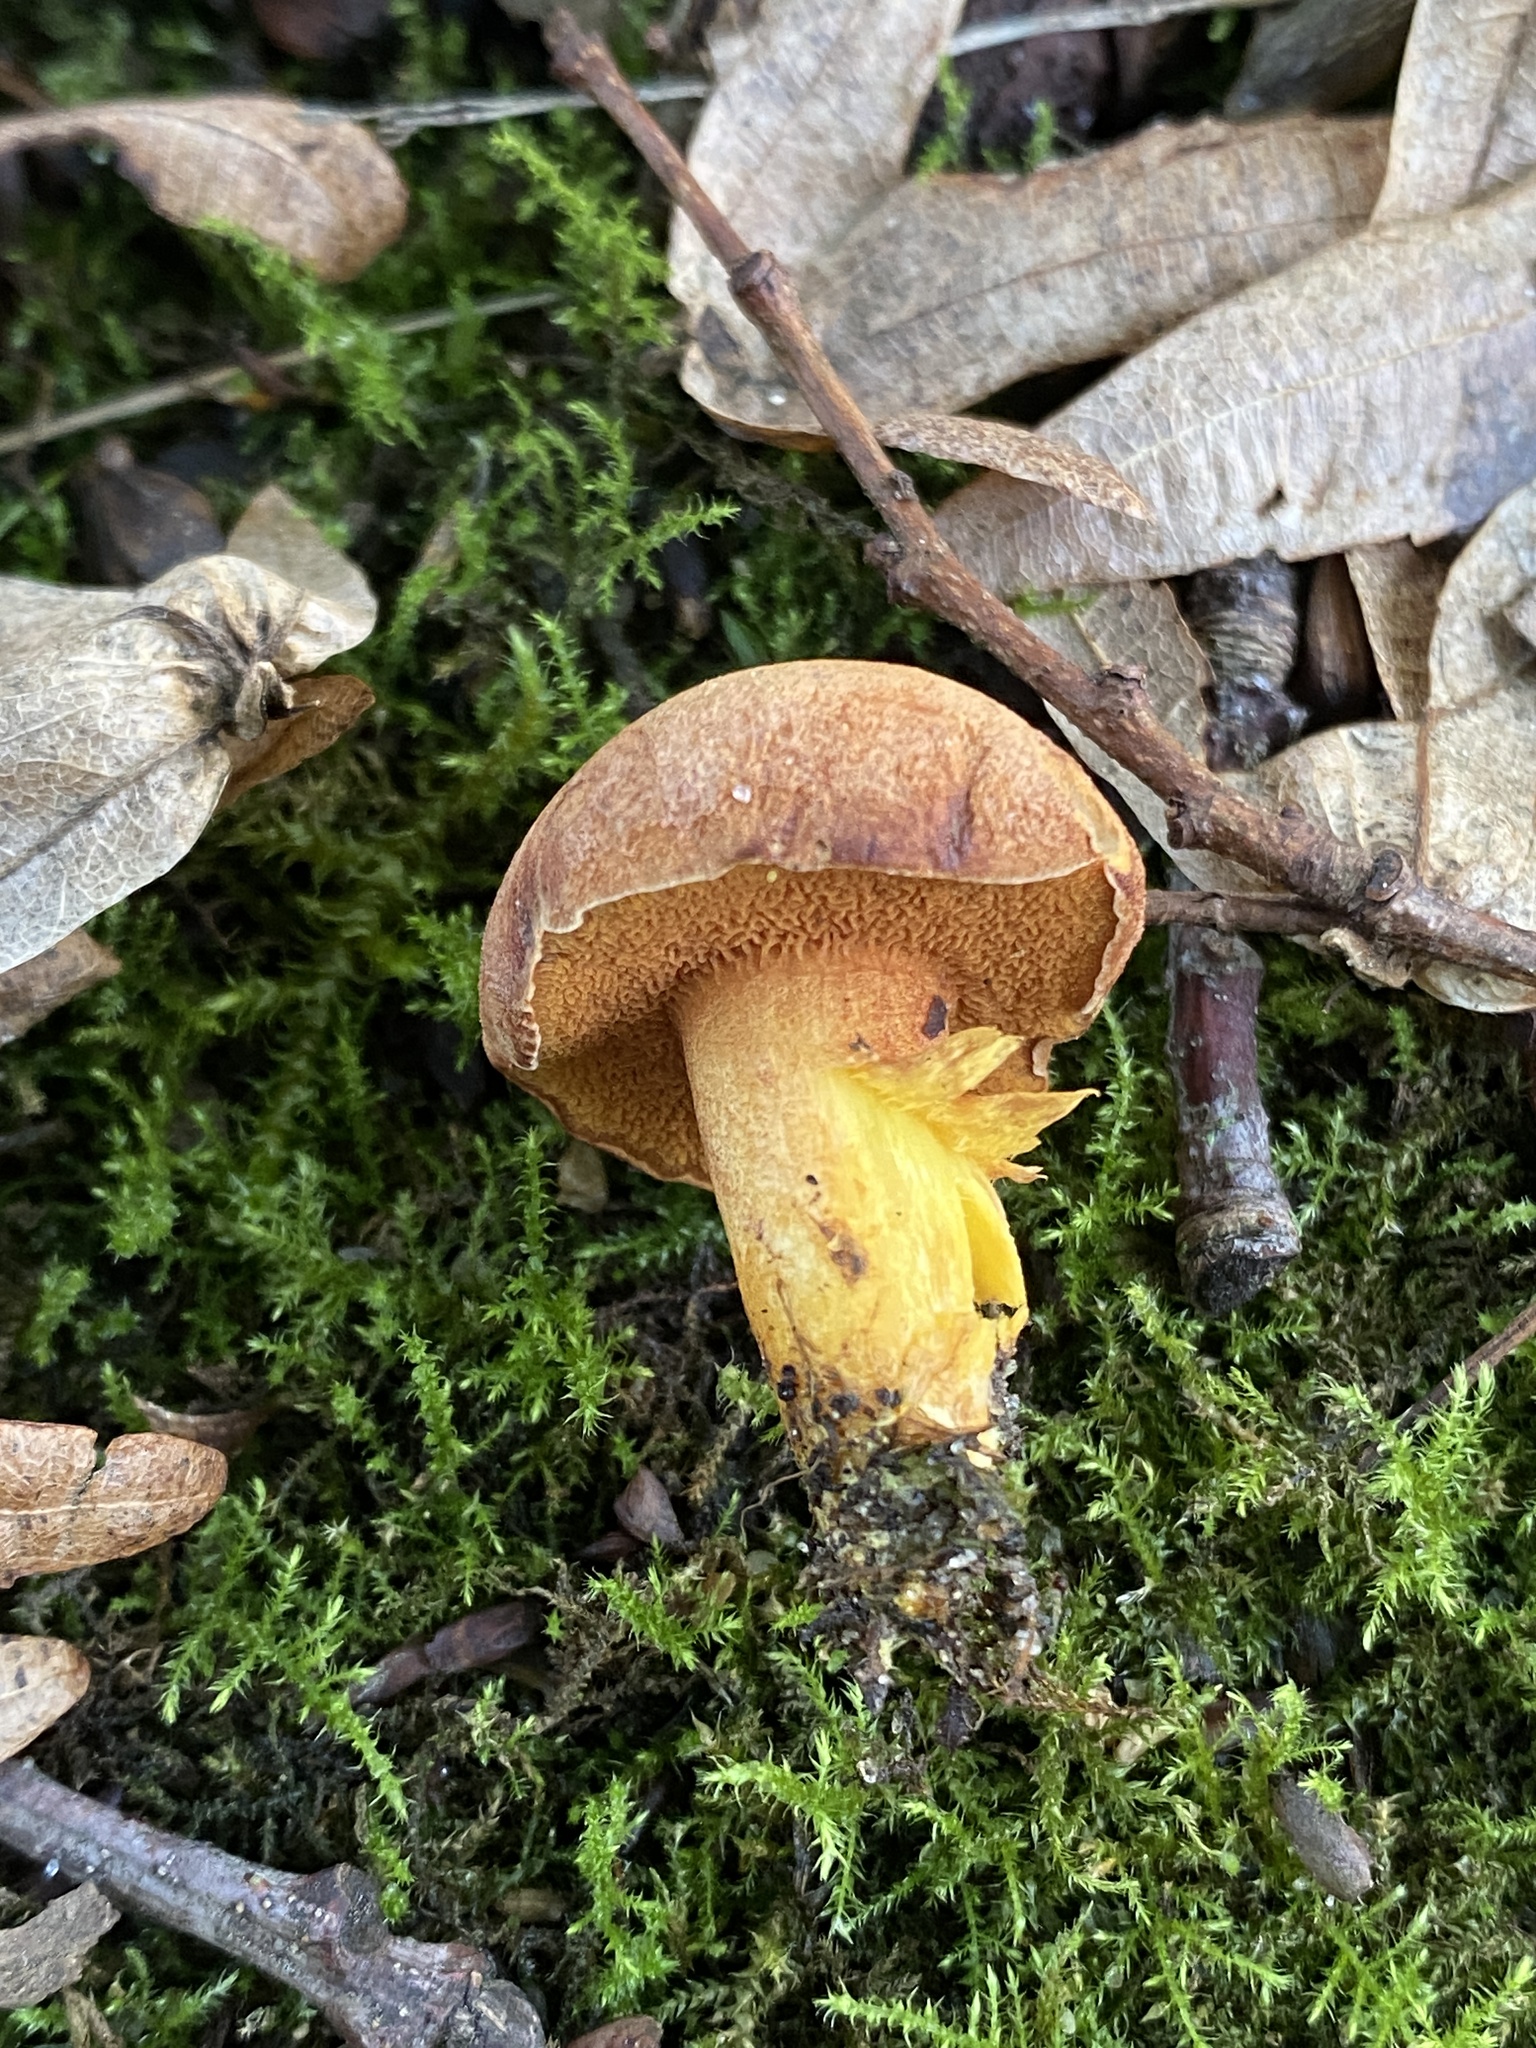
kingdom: Fungi
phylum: Basidiomycota
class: Agaricomycetes
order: Boletales
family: Boletaceae
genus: Chalciporus
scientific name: Chalciporus piperatus
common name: Peppery bolete
